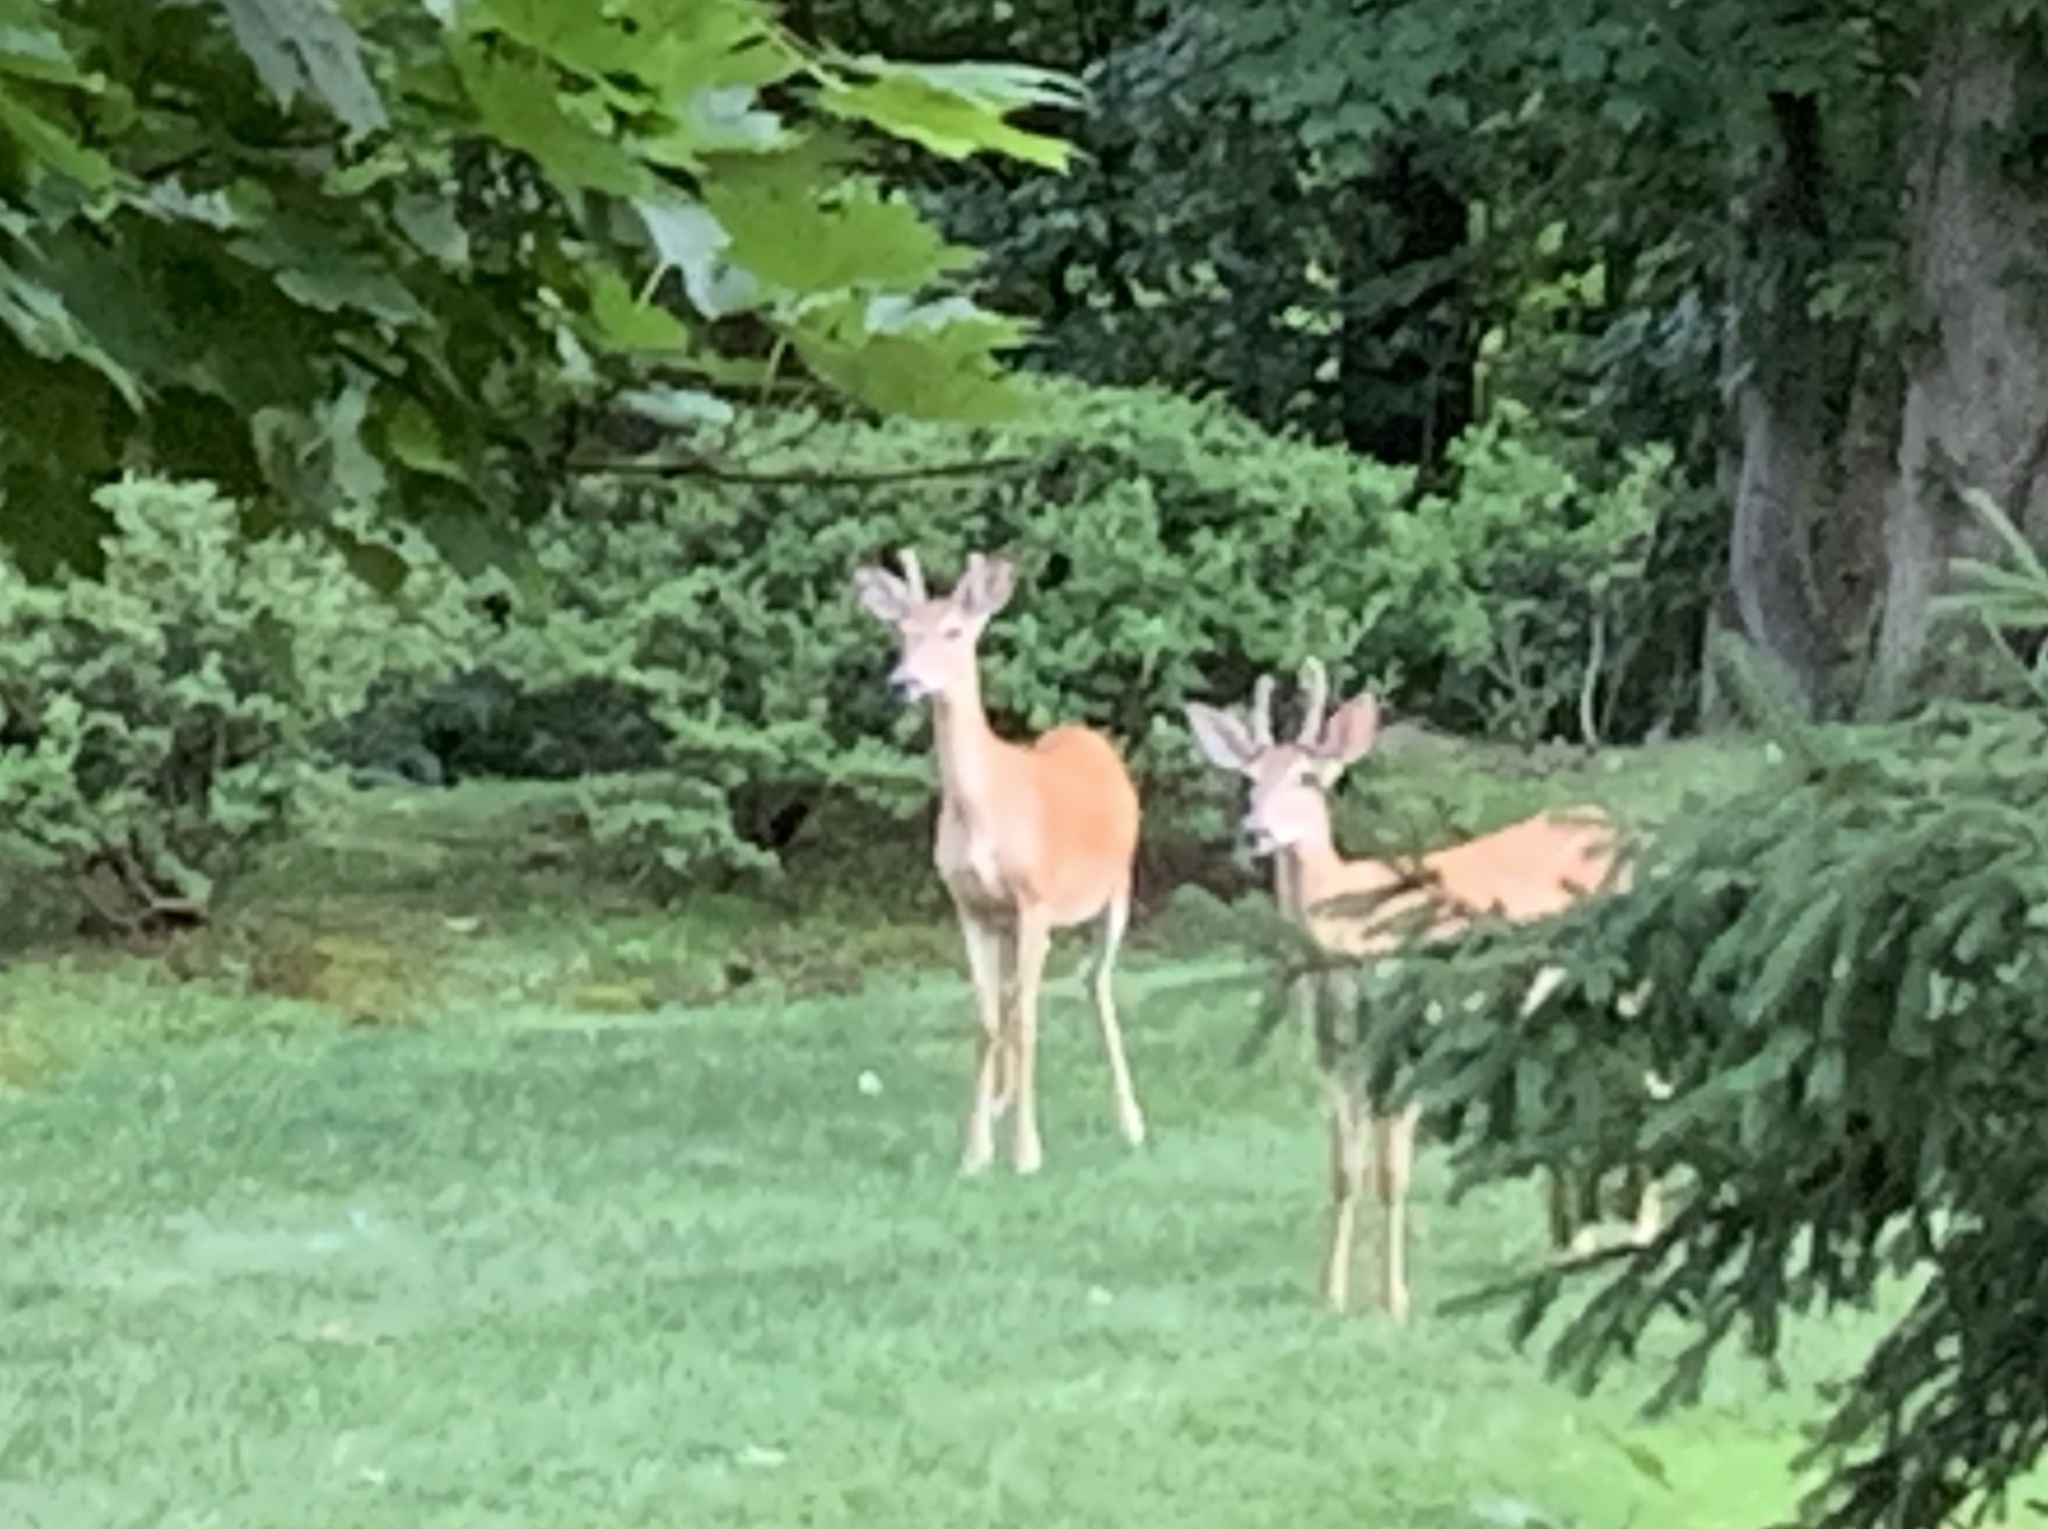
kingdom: Animalia
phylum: Chordata
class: Mammalia
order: Artiodactyla
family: Cervidae
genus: Odocoileus
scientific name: Odocoileus virginianus
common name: White-tailed deer
